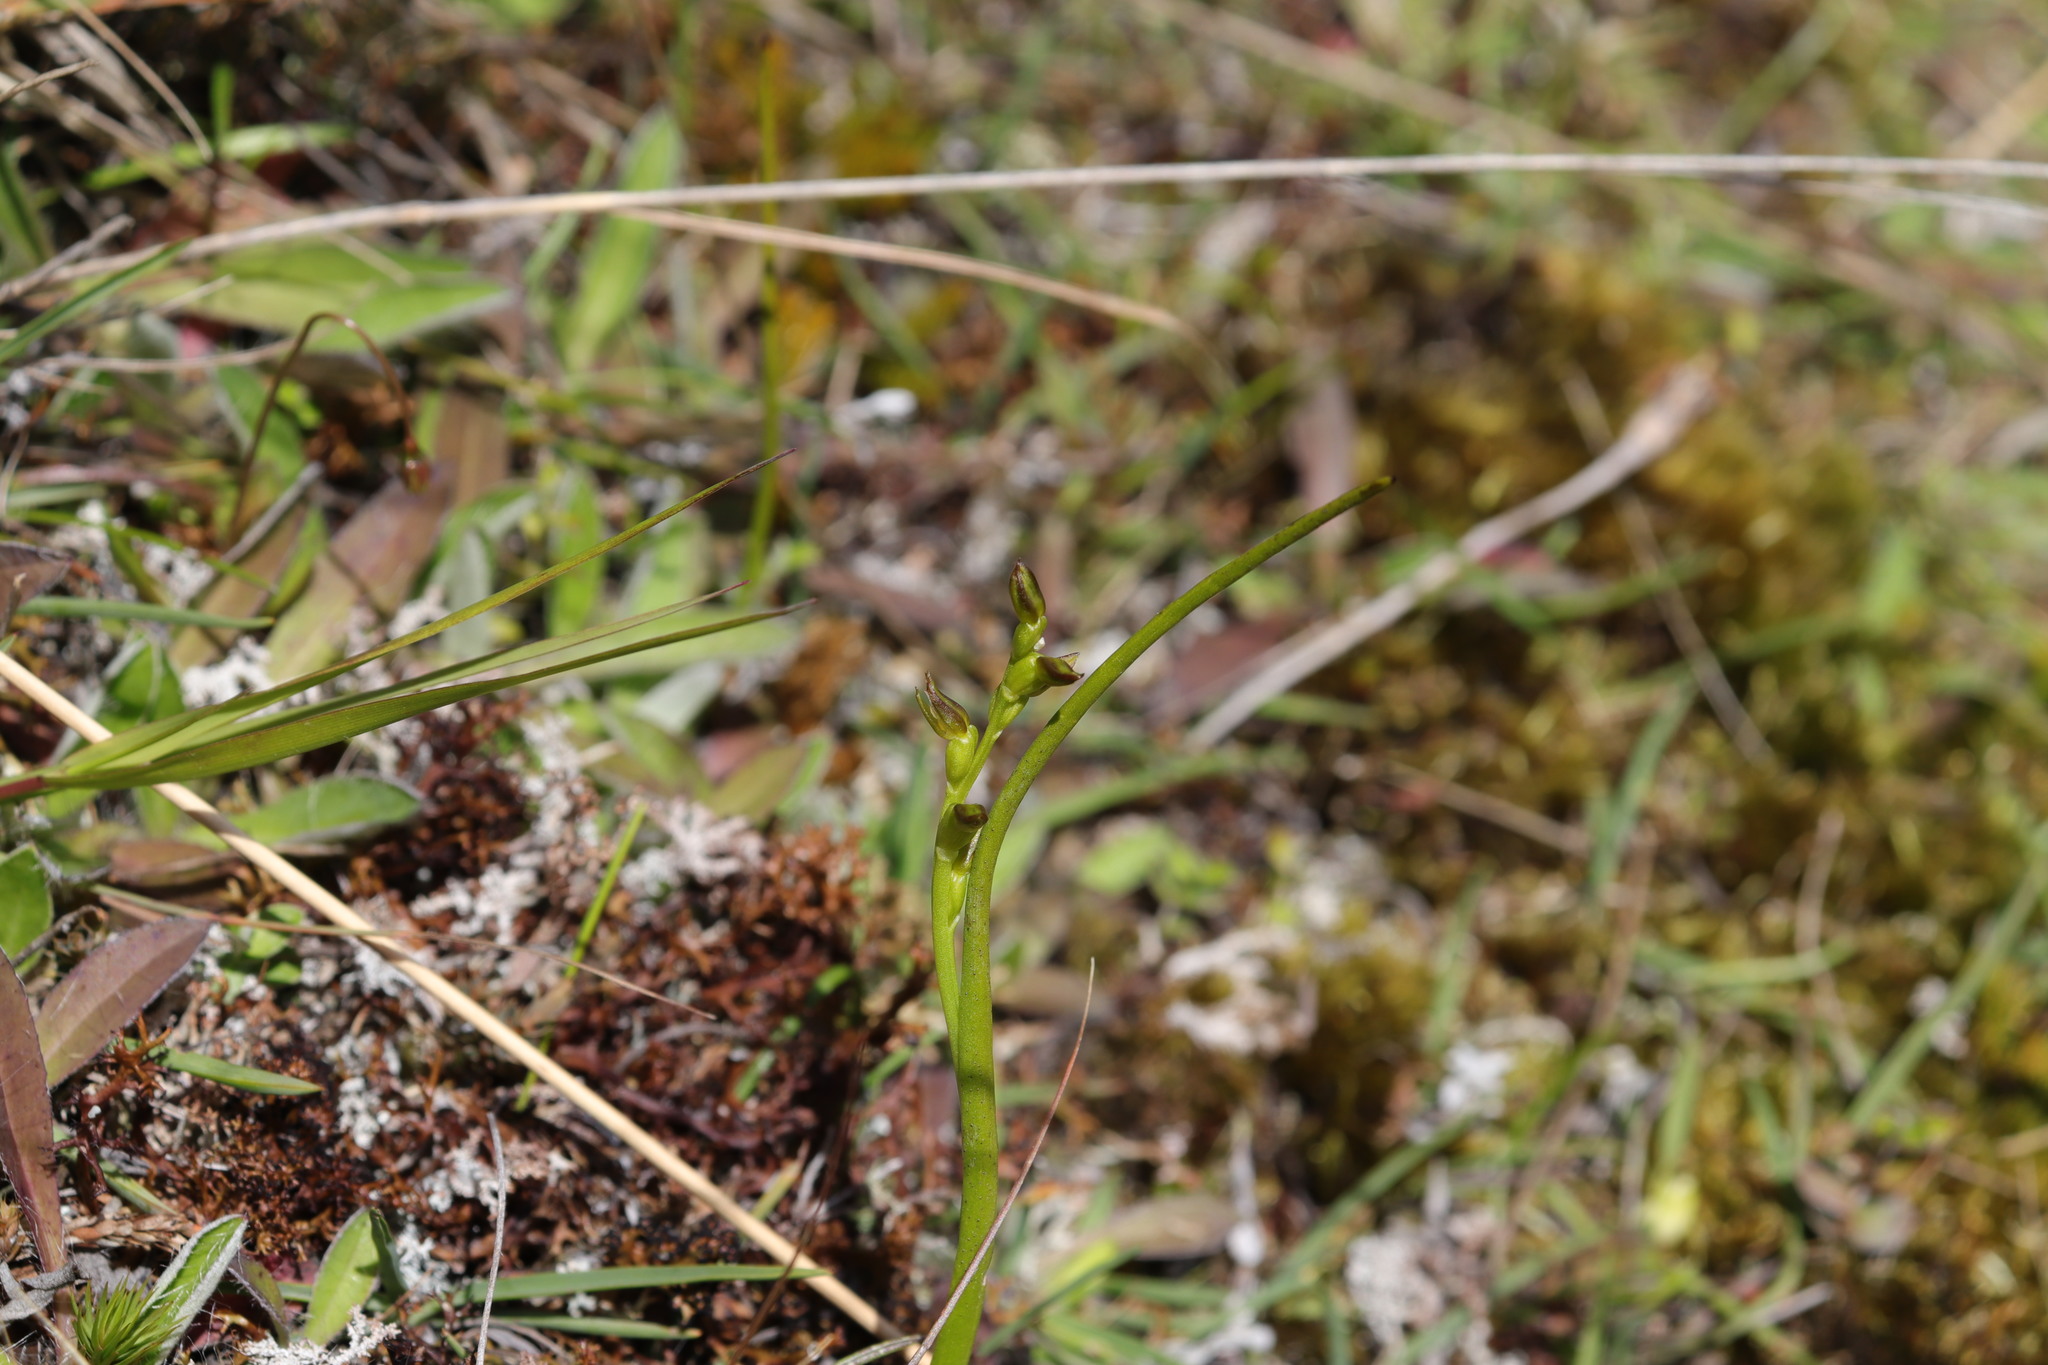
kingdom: Plantae
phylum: Tracheophyta
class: Liliopsida
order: Asparagales
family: Orchidaceae
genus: Prasophyllum
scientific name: Prasophyllum colensoi
